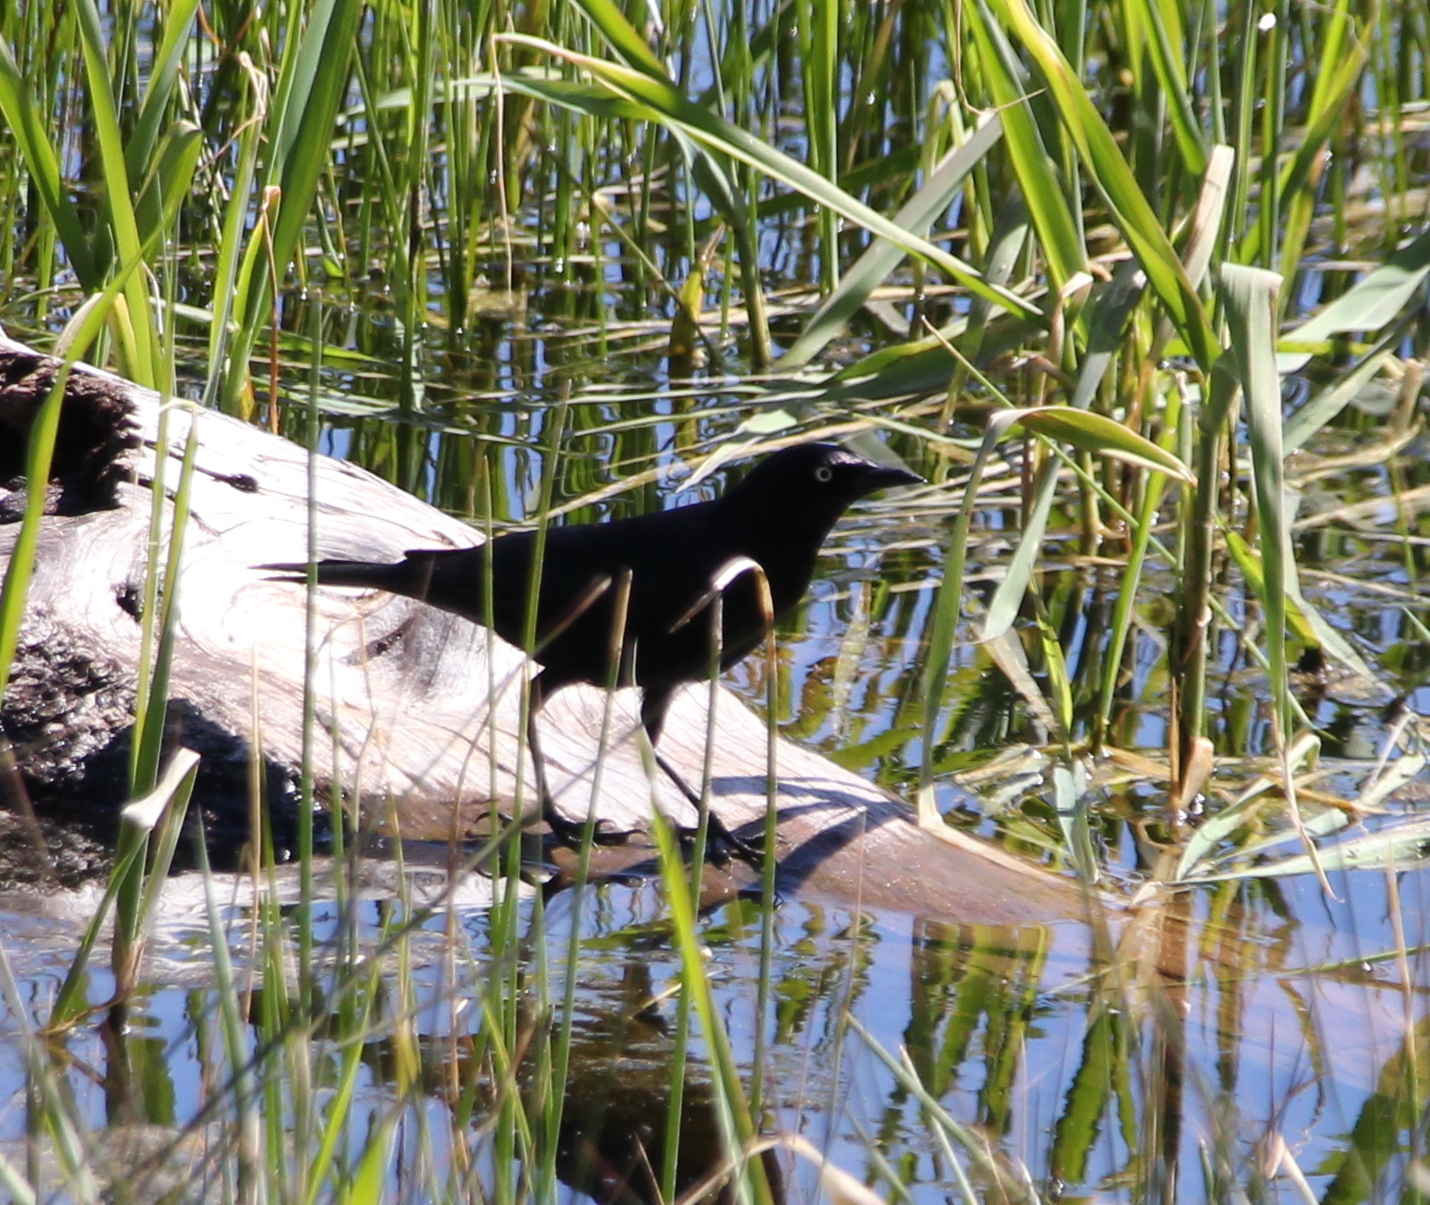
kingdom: Animalia
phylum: Chordata
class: Aves
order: Passeriformes
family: Icteridae
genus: Euphagus
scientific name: Euphagus cyanocephalus
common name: Brewer's blackbird
